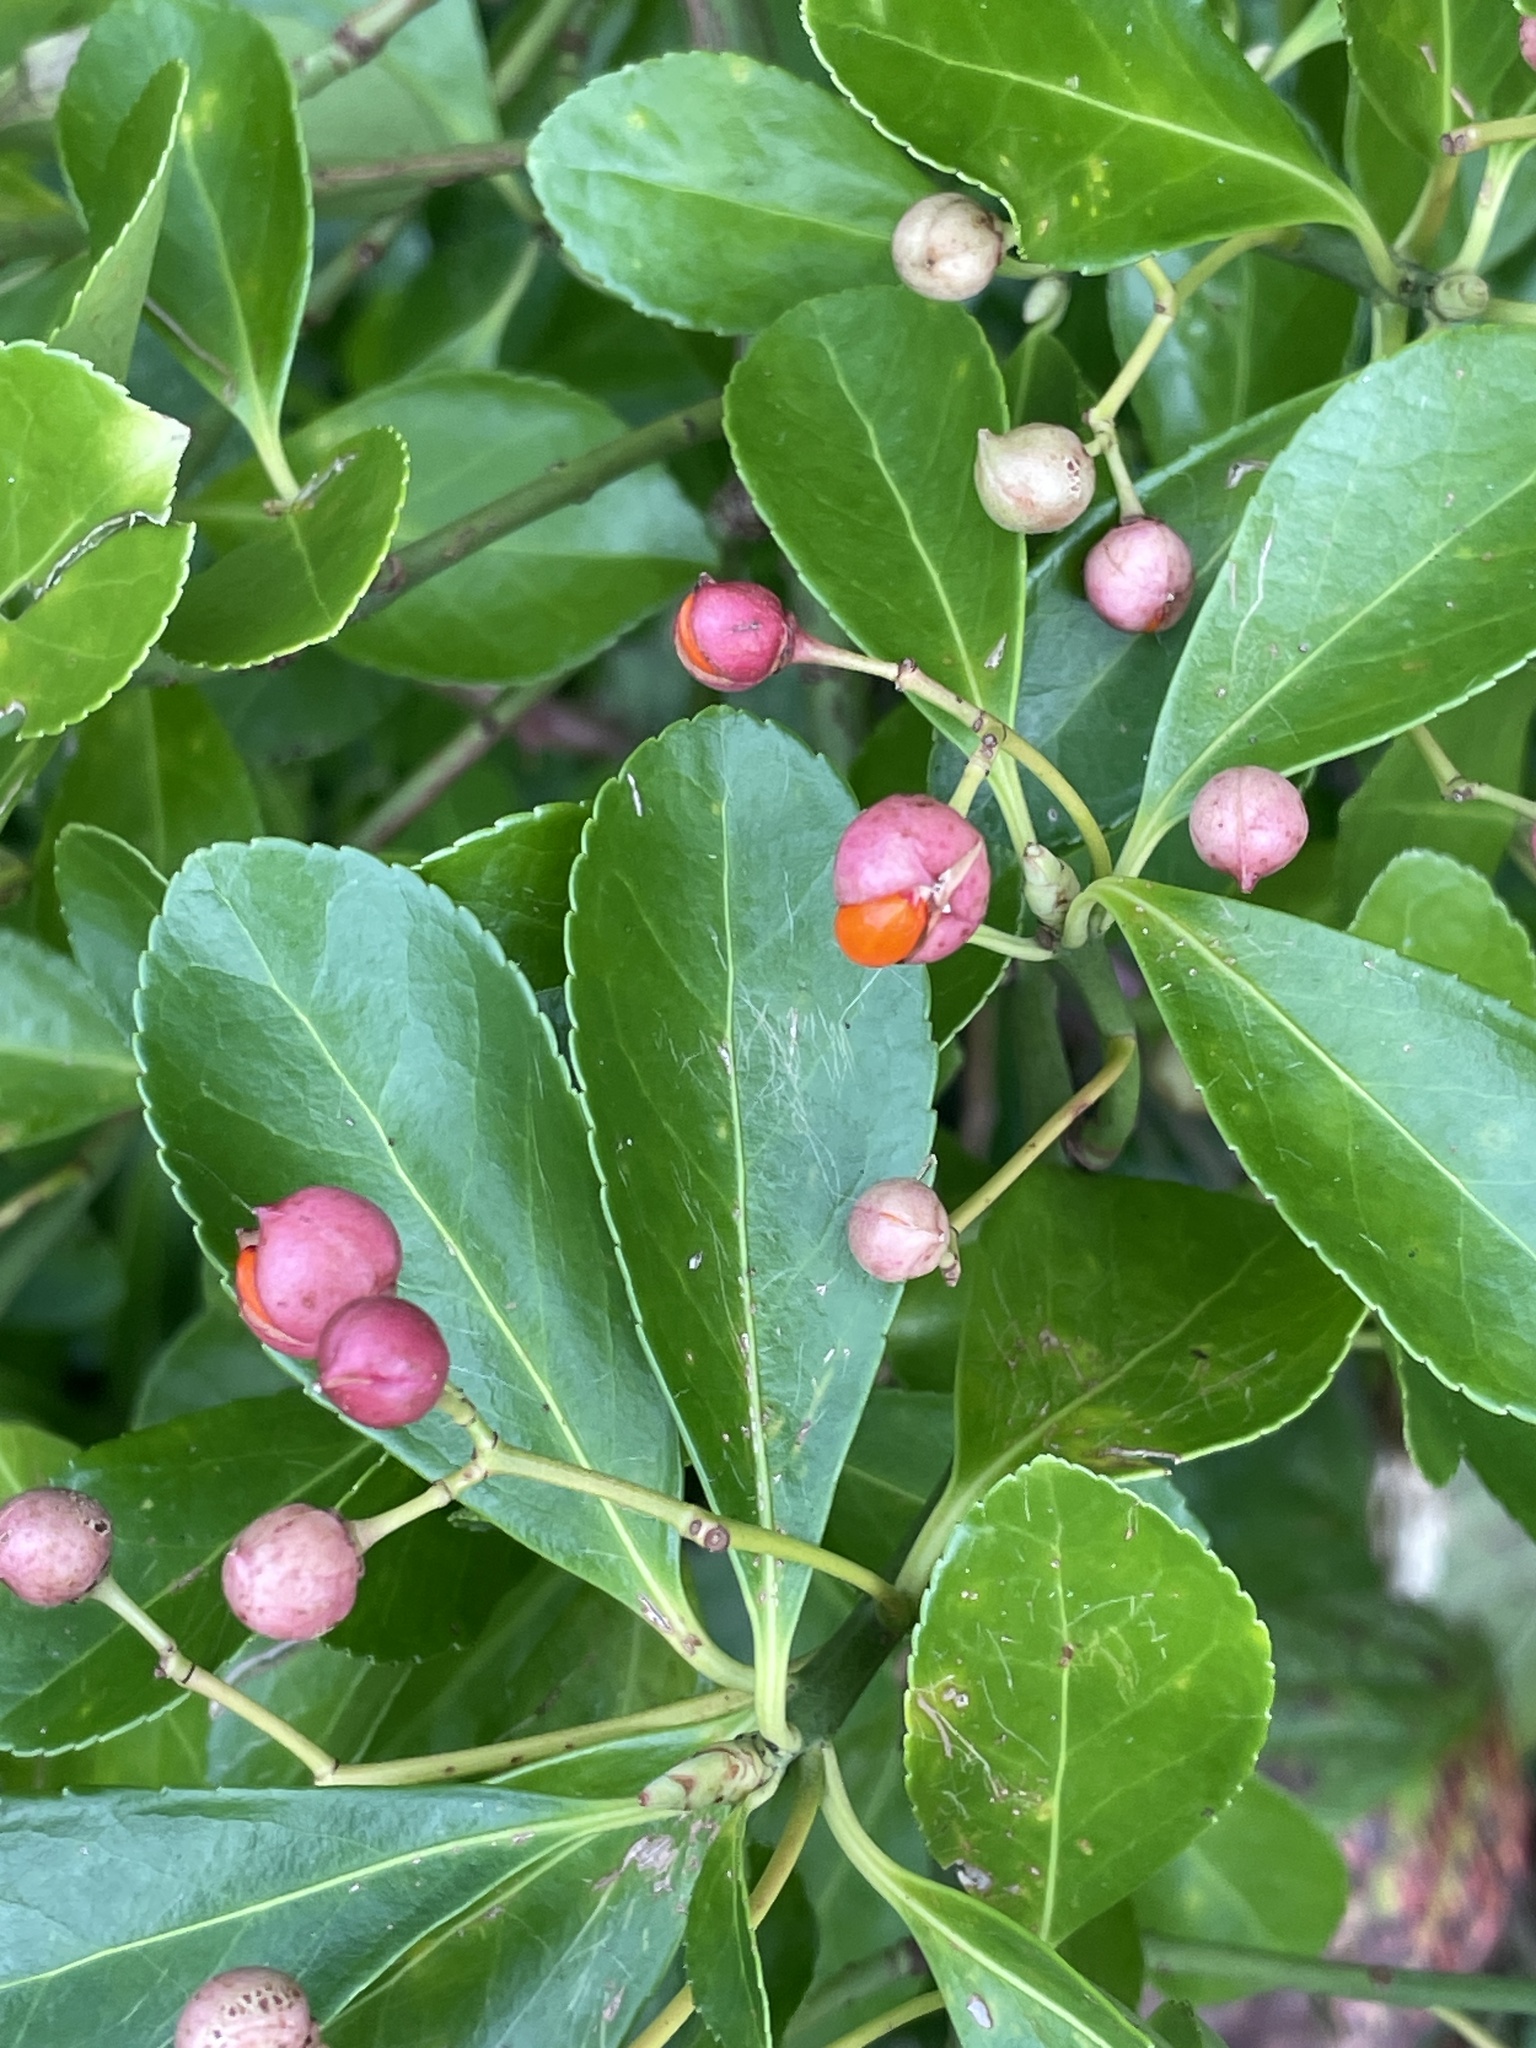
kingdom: Plantae
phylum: Tracheophyta
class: Magnoliopsida
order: Celastrales
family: Celastraceae
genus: Euonymus
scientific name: Euonymus japonicus
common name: Japanese spindletree
